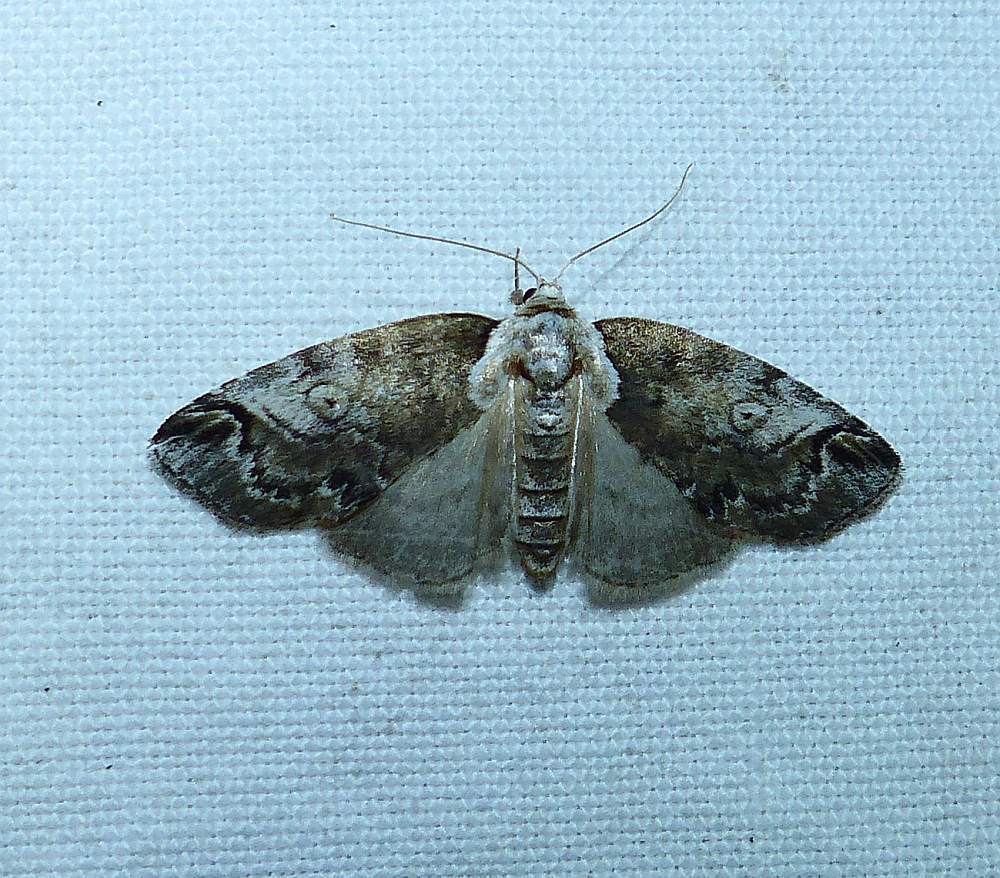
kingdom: Animalia
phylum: Arthropoda
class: Insecta
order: Lepidoptera
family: Nolidae
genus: Baileya
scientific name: Baileya ophthalmica
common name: Eyed baileya moth
